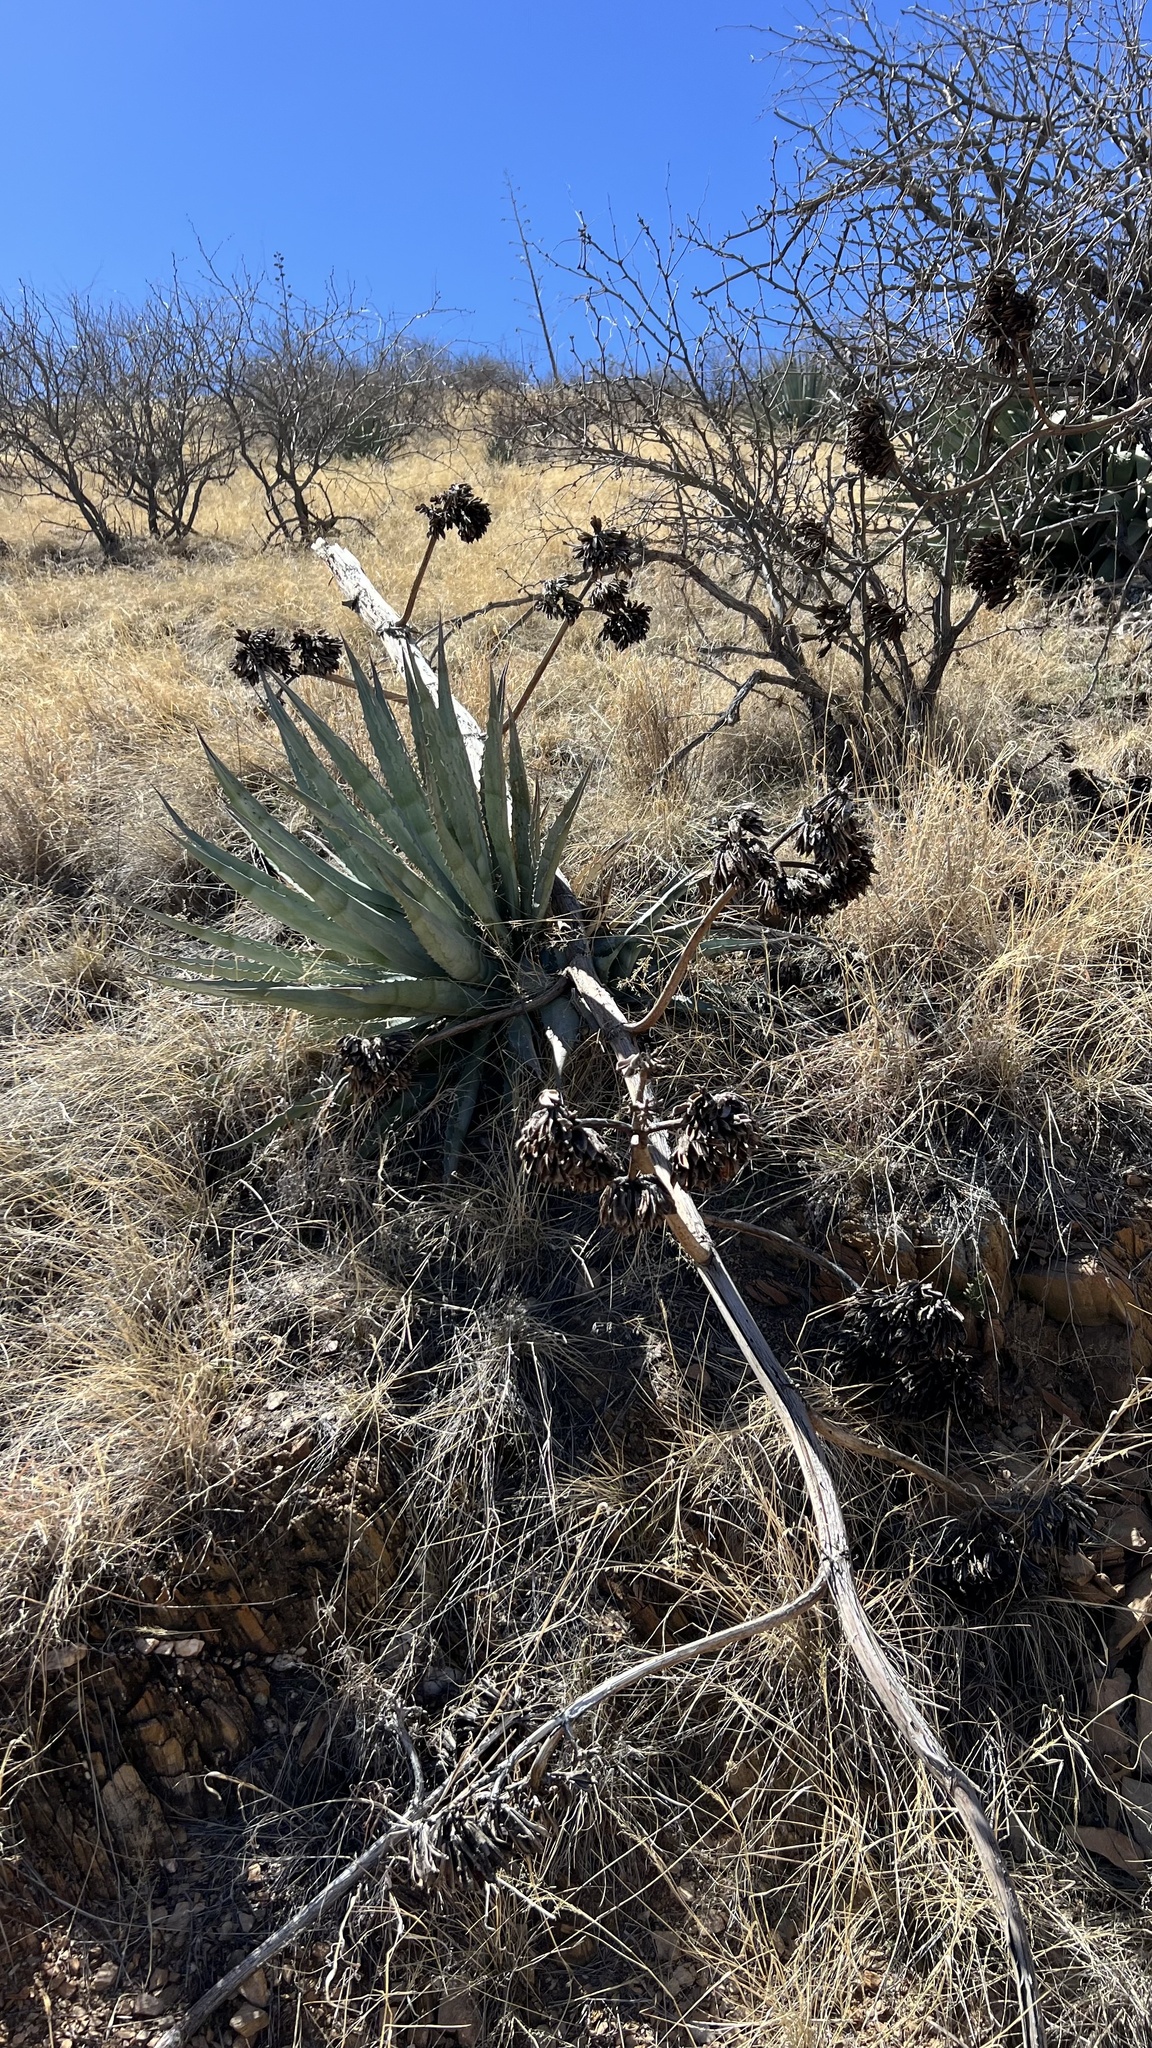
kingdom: Plantae
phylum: Tracheophyta
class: Liliopsida
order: Asparagales
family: Asparagaceae
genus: Agave
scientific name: Agave palmeri
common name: Palmer agave
